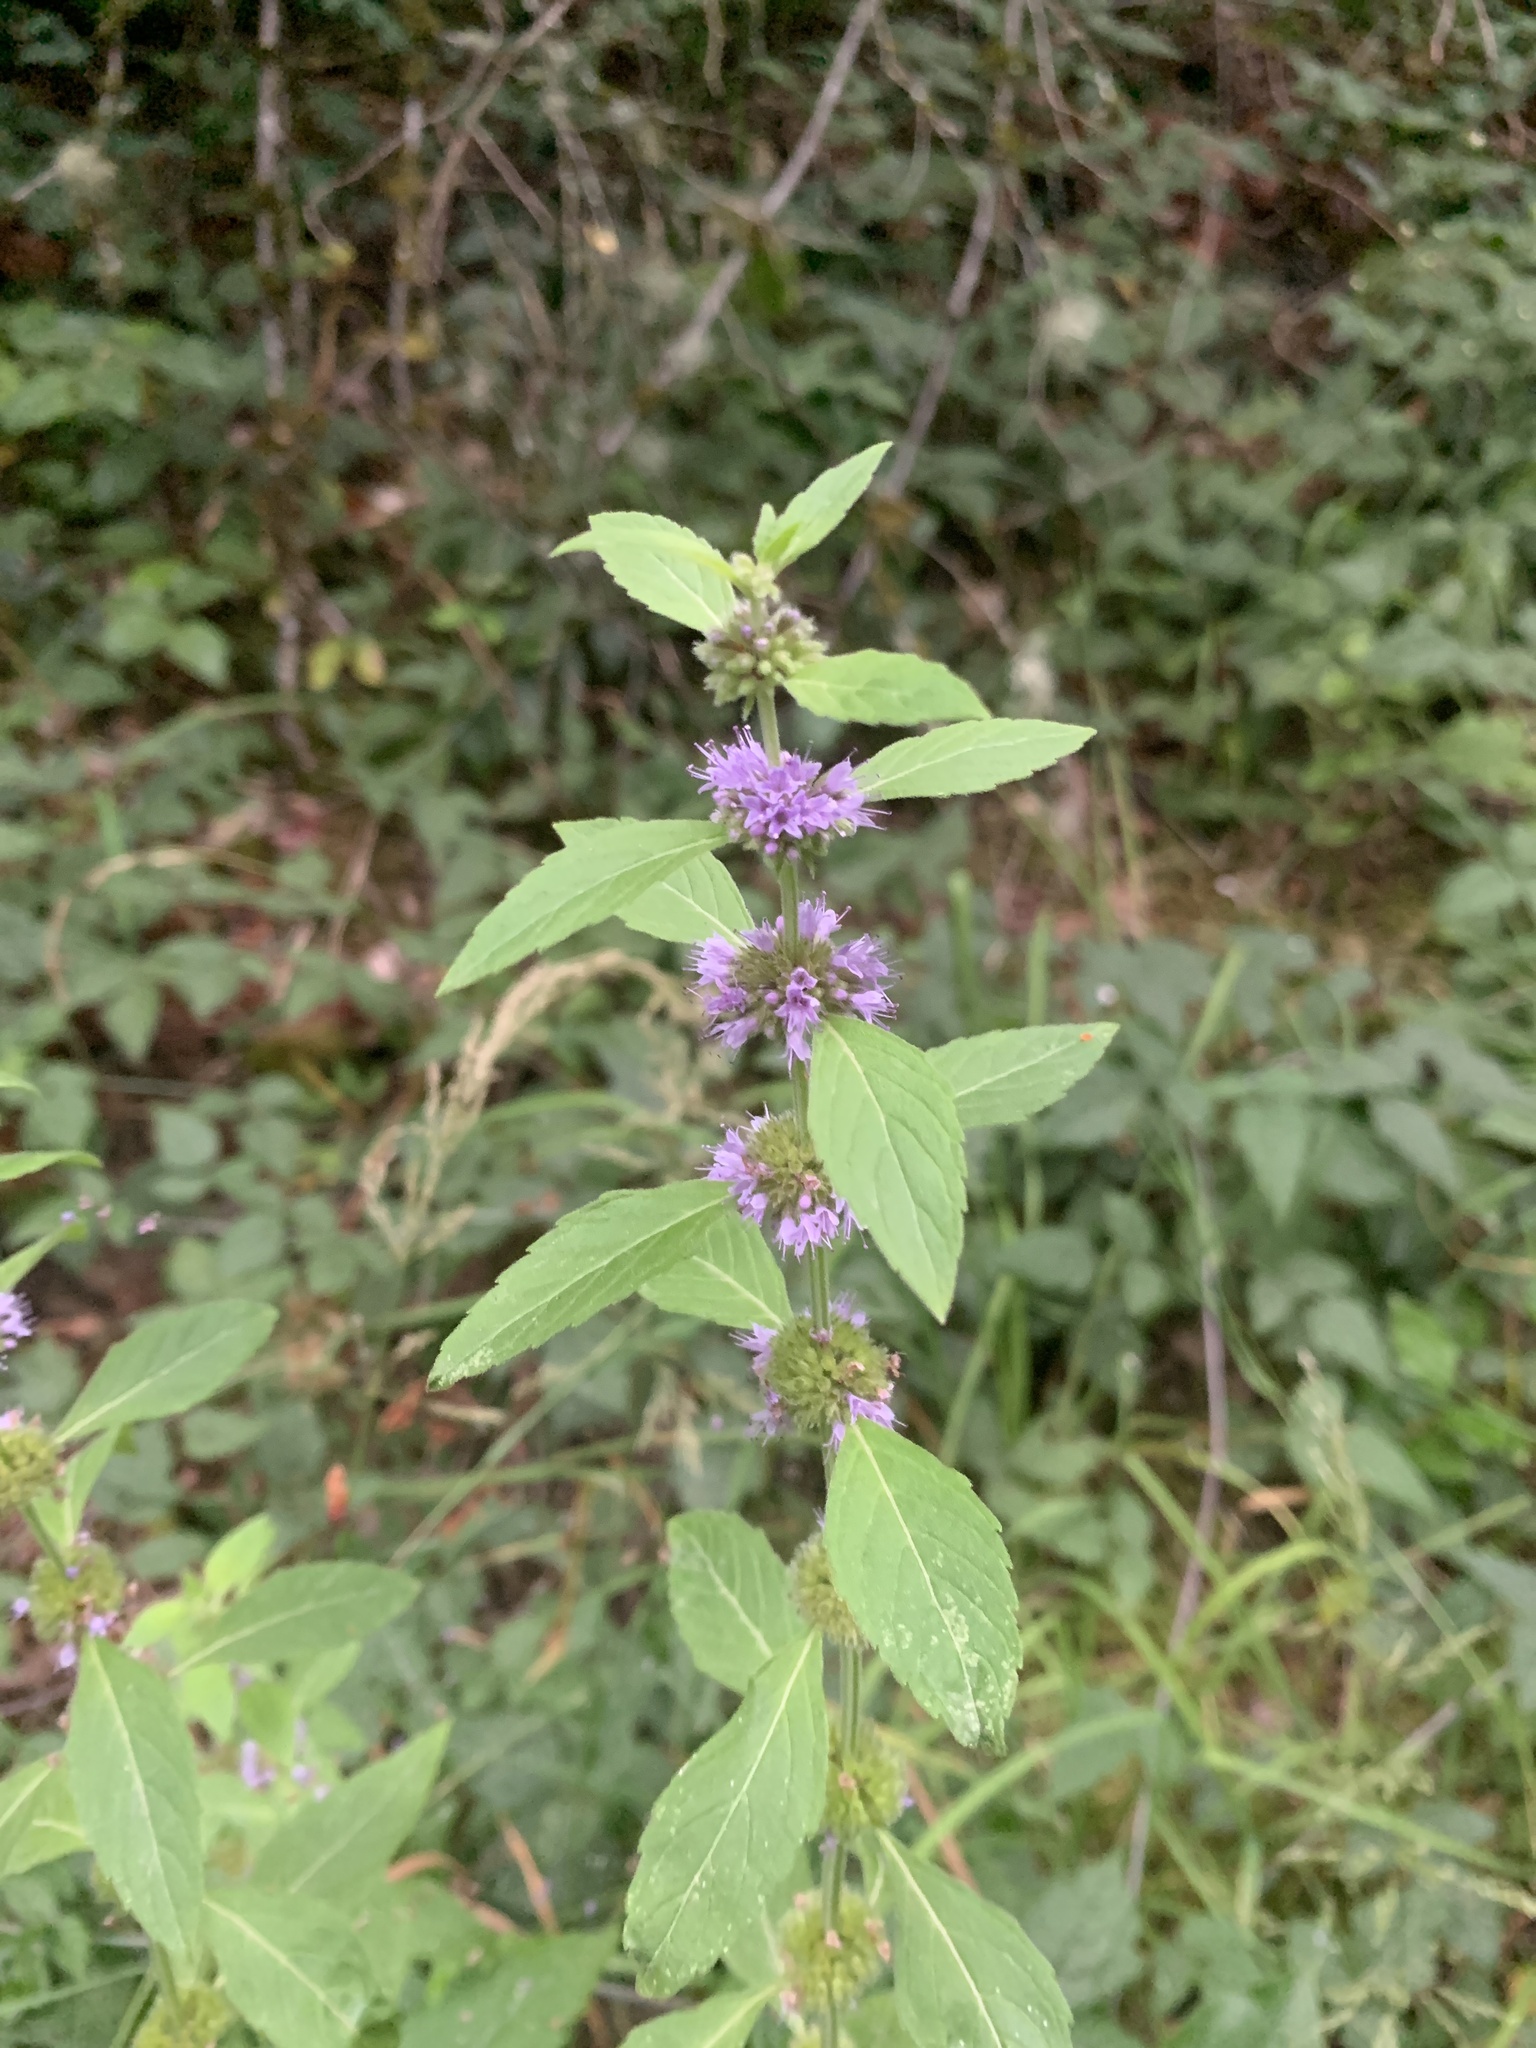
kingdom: Plantae
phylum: Tracheophyta
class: Magnoliopsida
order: Lamiales
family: Lamiaceae
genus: Mentha
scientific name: Mentha canadensis
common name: American corn mint
